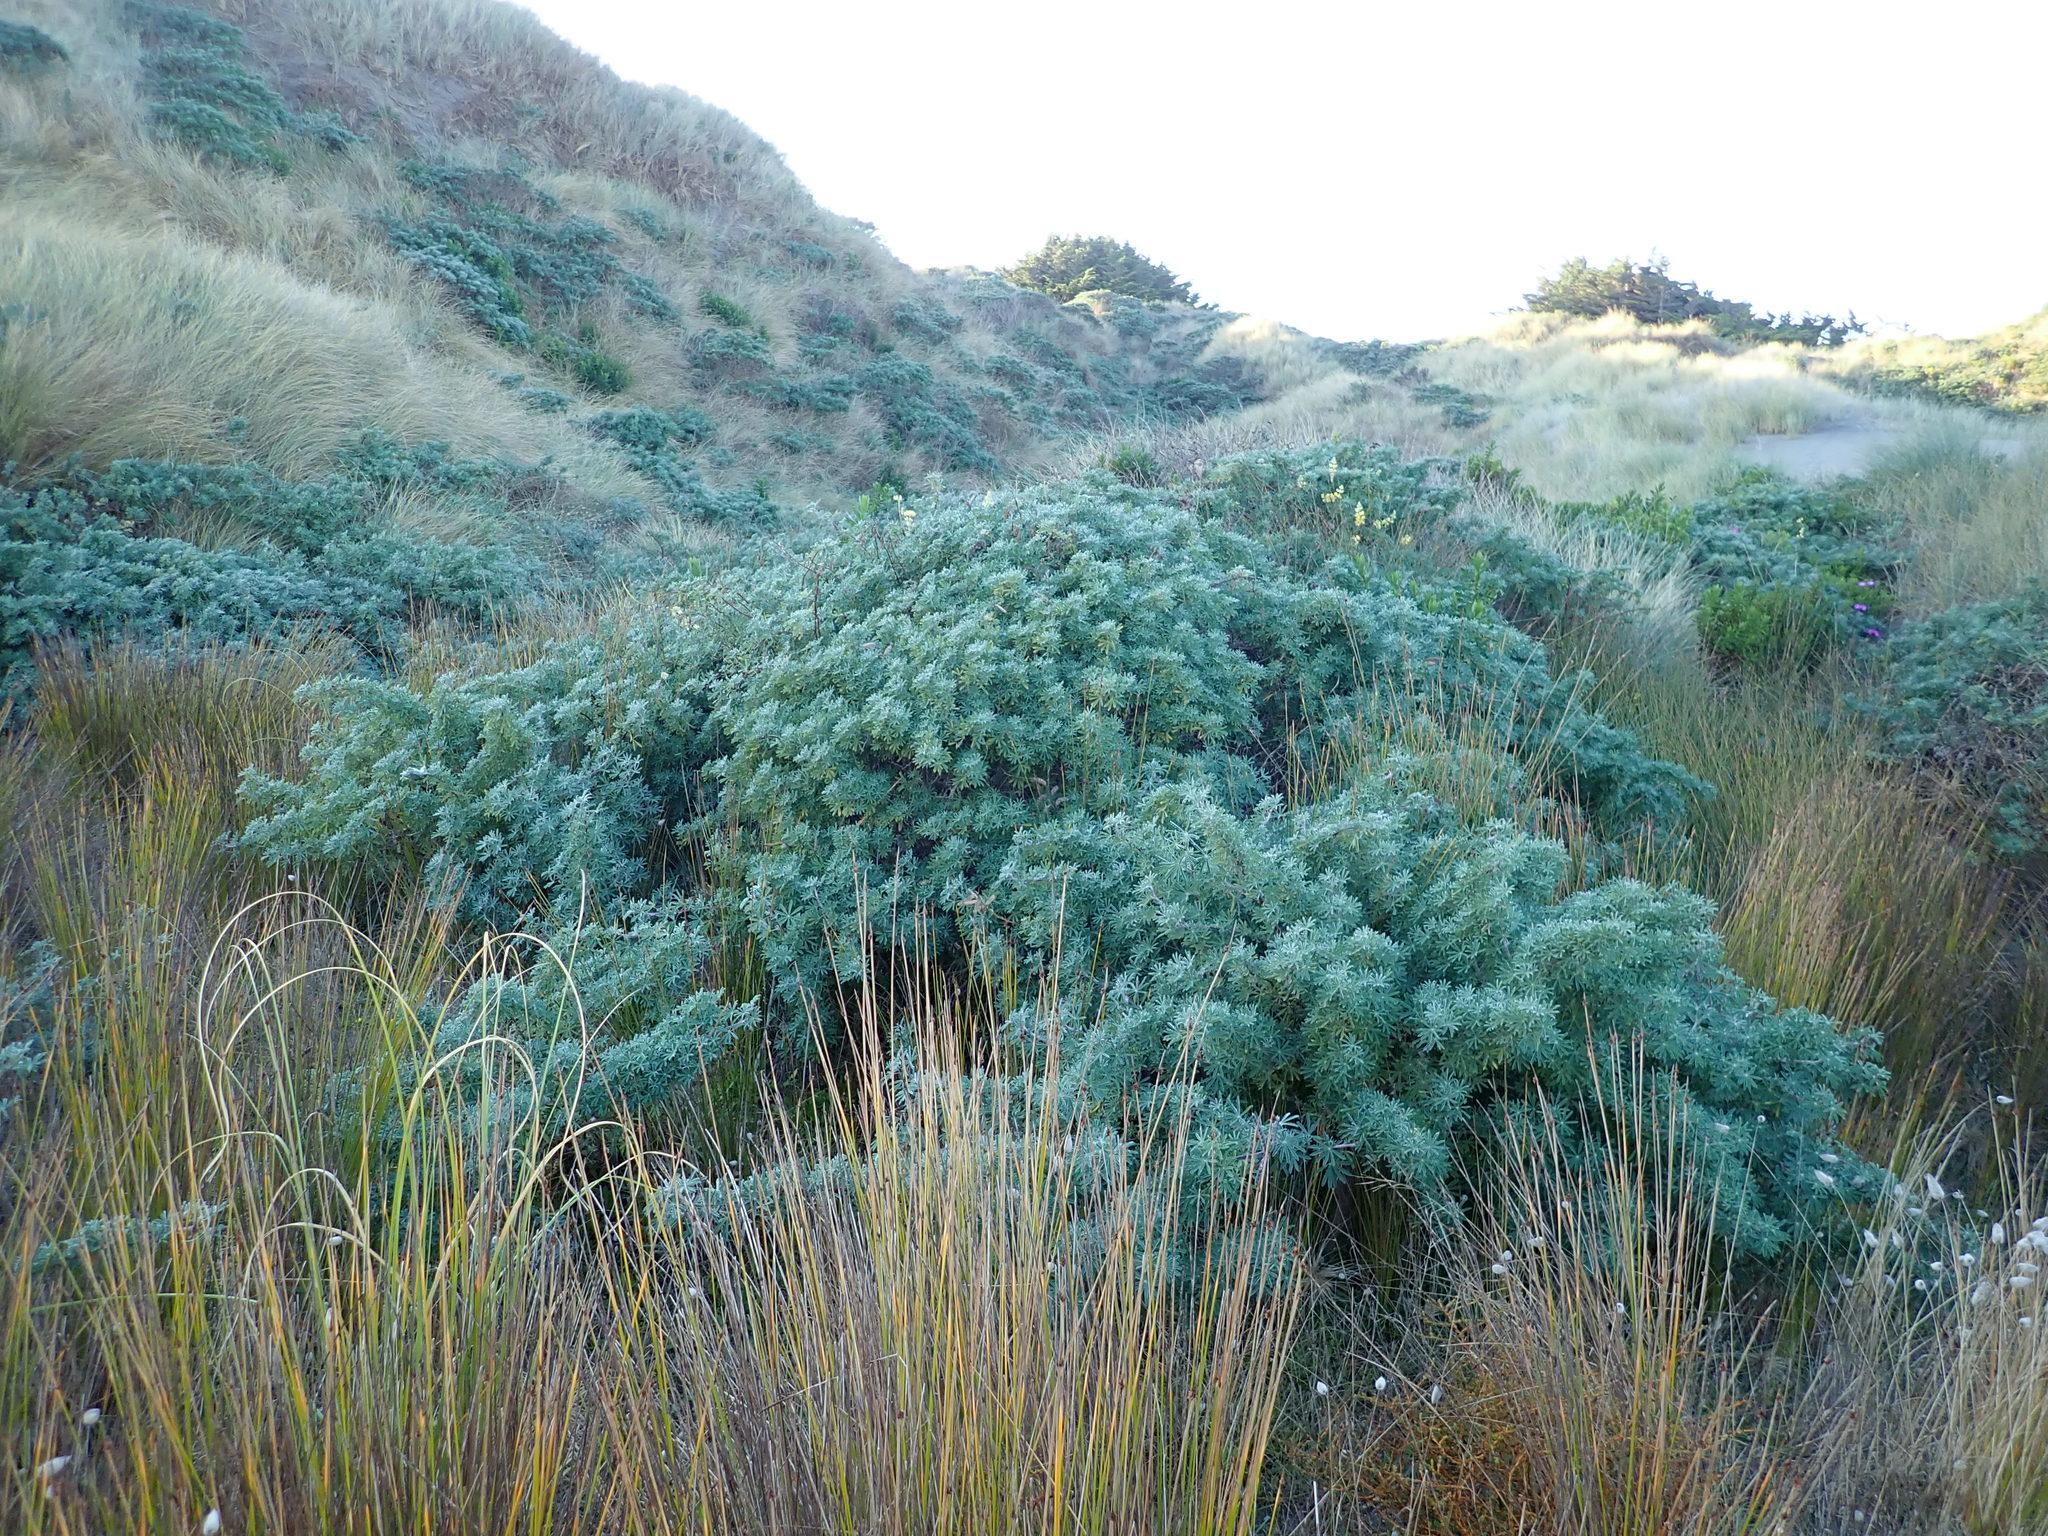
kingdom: Plantae
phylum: Tracheophyta
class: Magnoliopsida
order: Fabales
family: Fabaceae
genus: Lupinus
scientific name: Lupinus arboreus
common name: Yellow bush lupine
